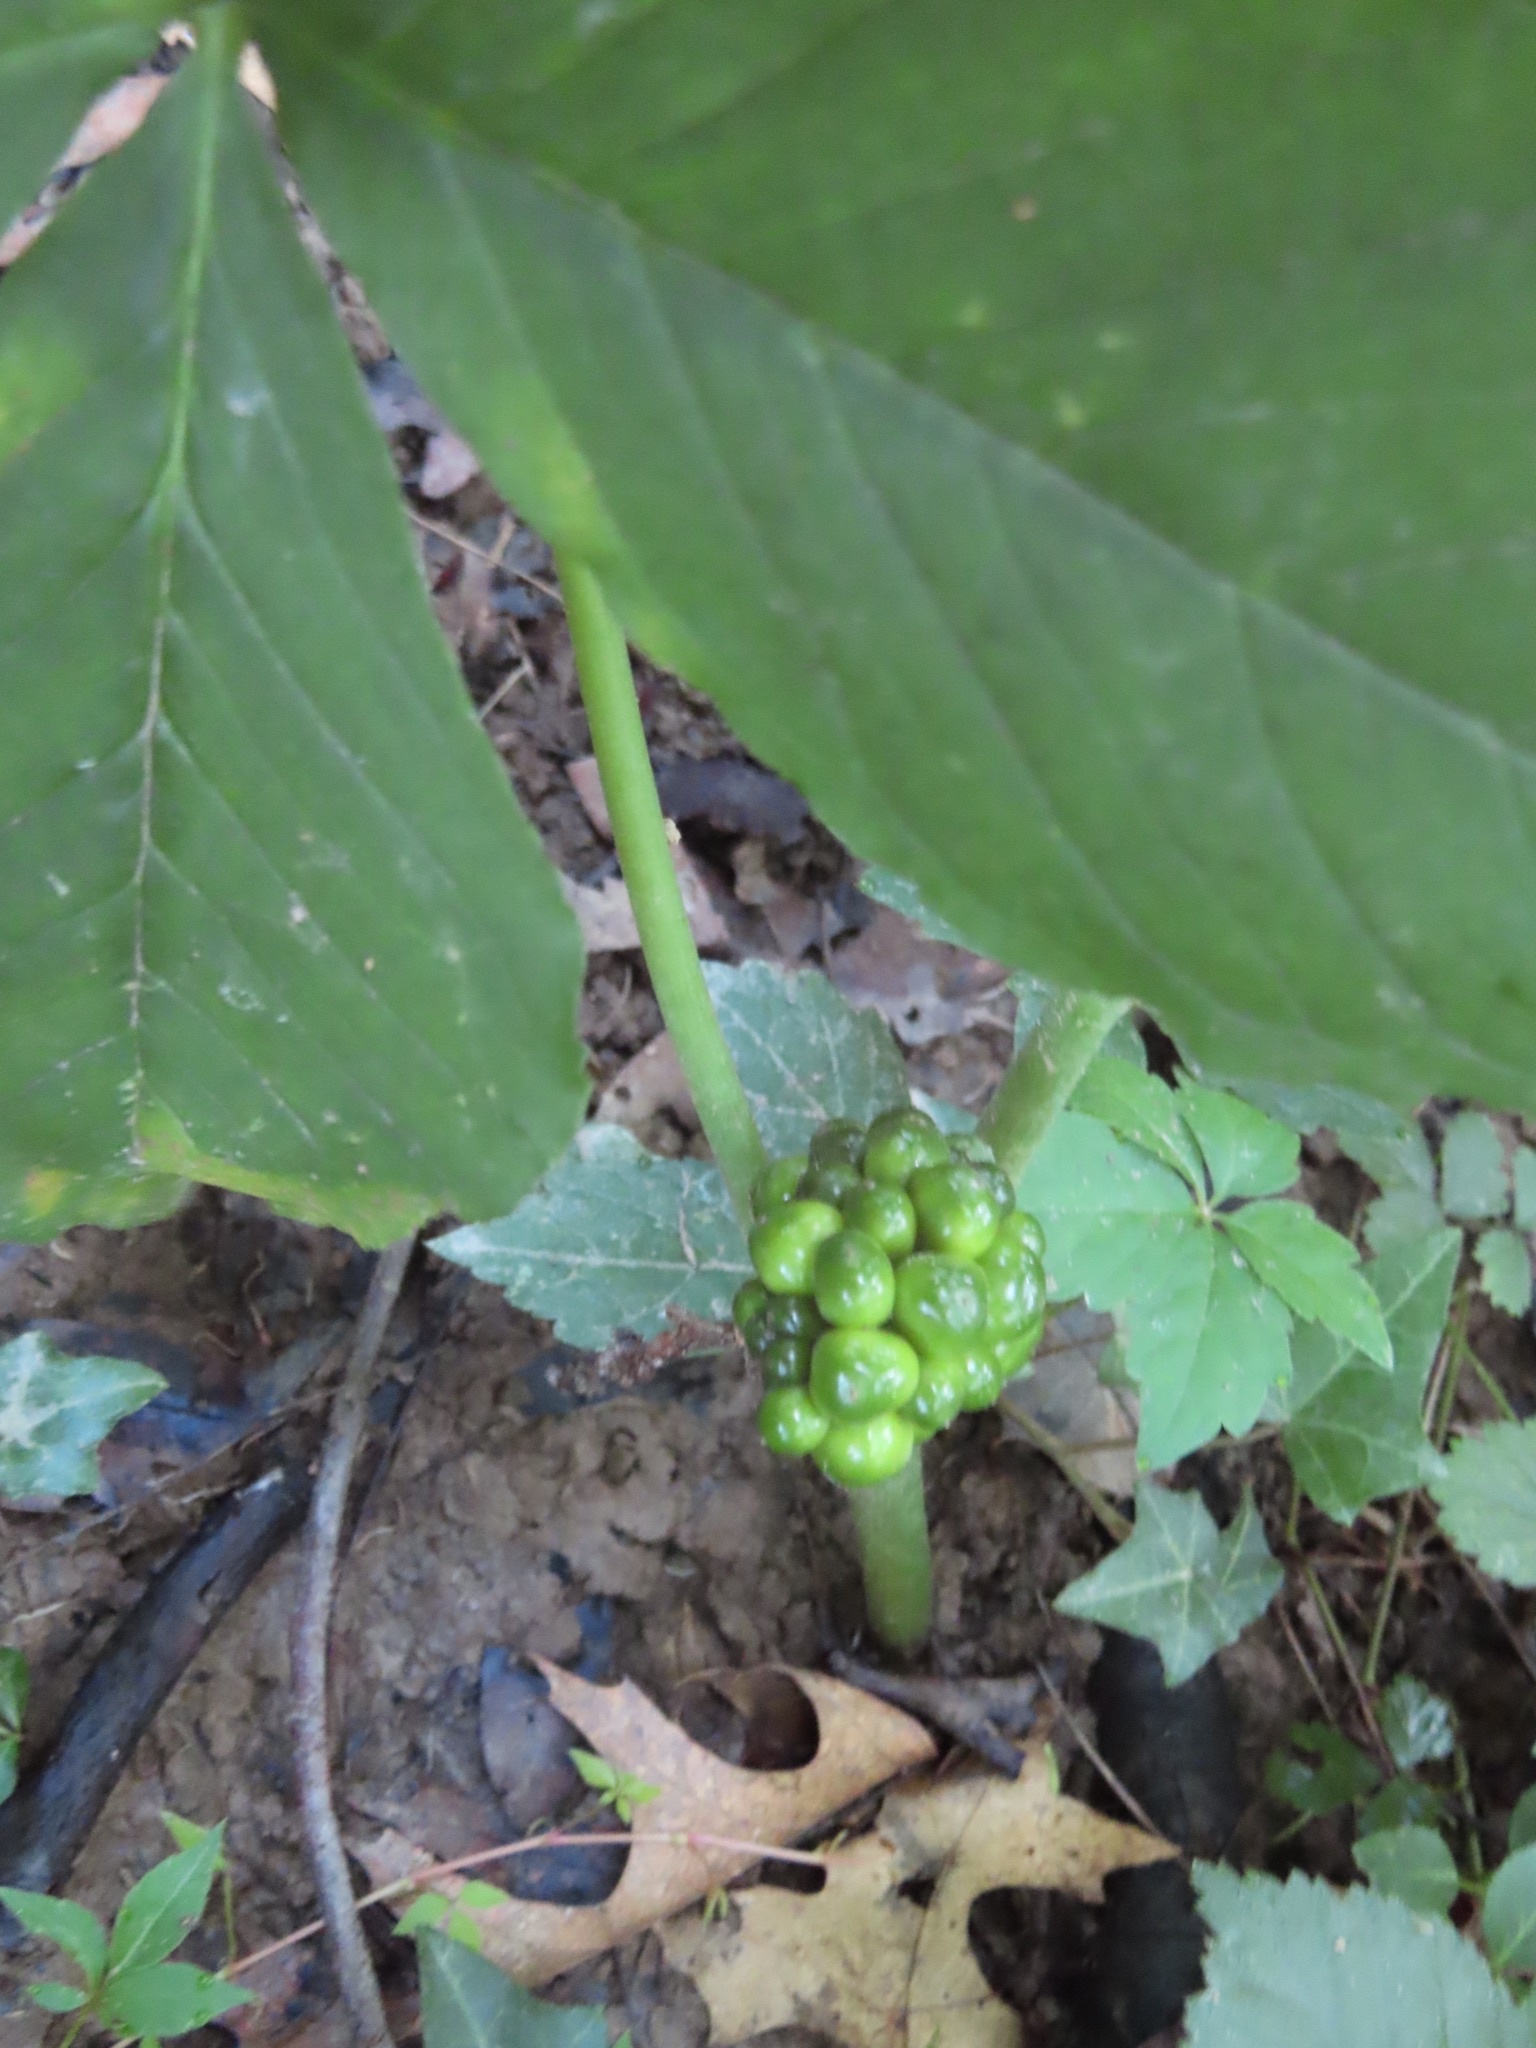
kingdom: Plantae
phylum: Tracheophyta
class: Liliopsida
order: Alismatales
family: Araceae
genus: Arisaema
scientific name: Arisaema triphyllum
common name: Jack-in-the-pulpit
